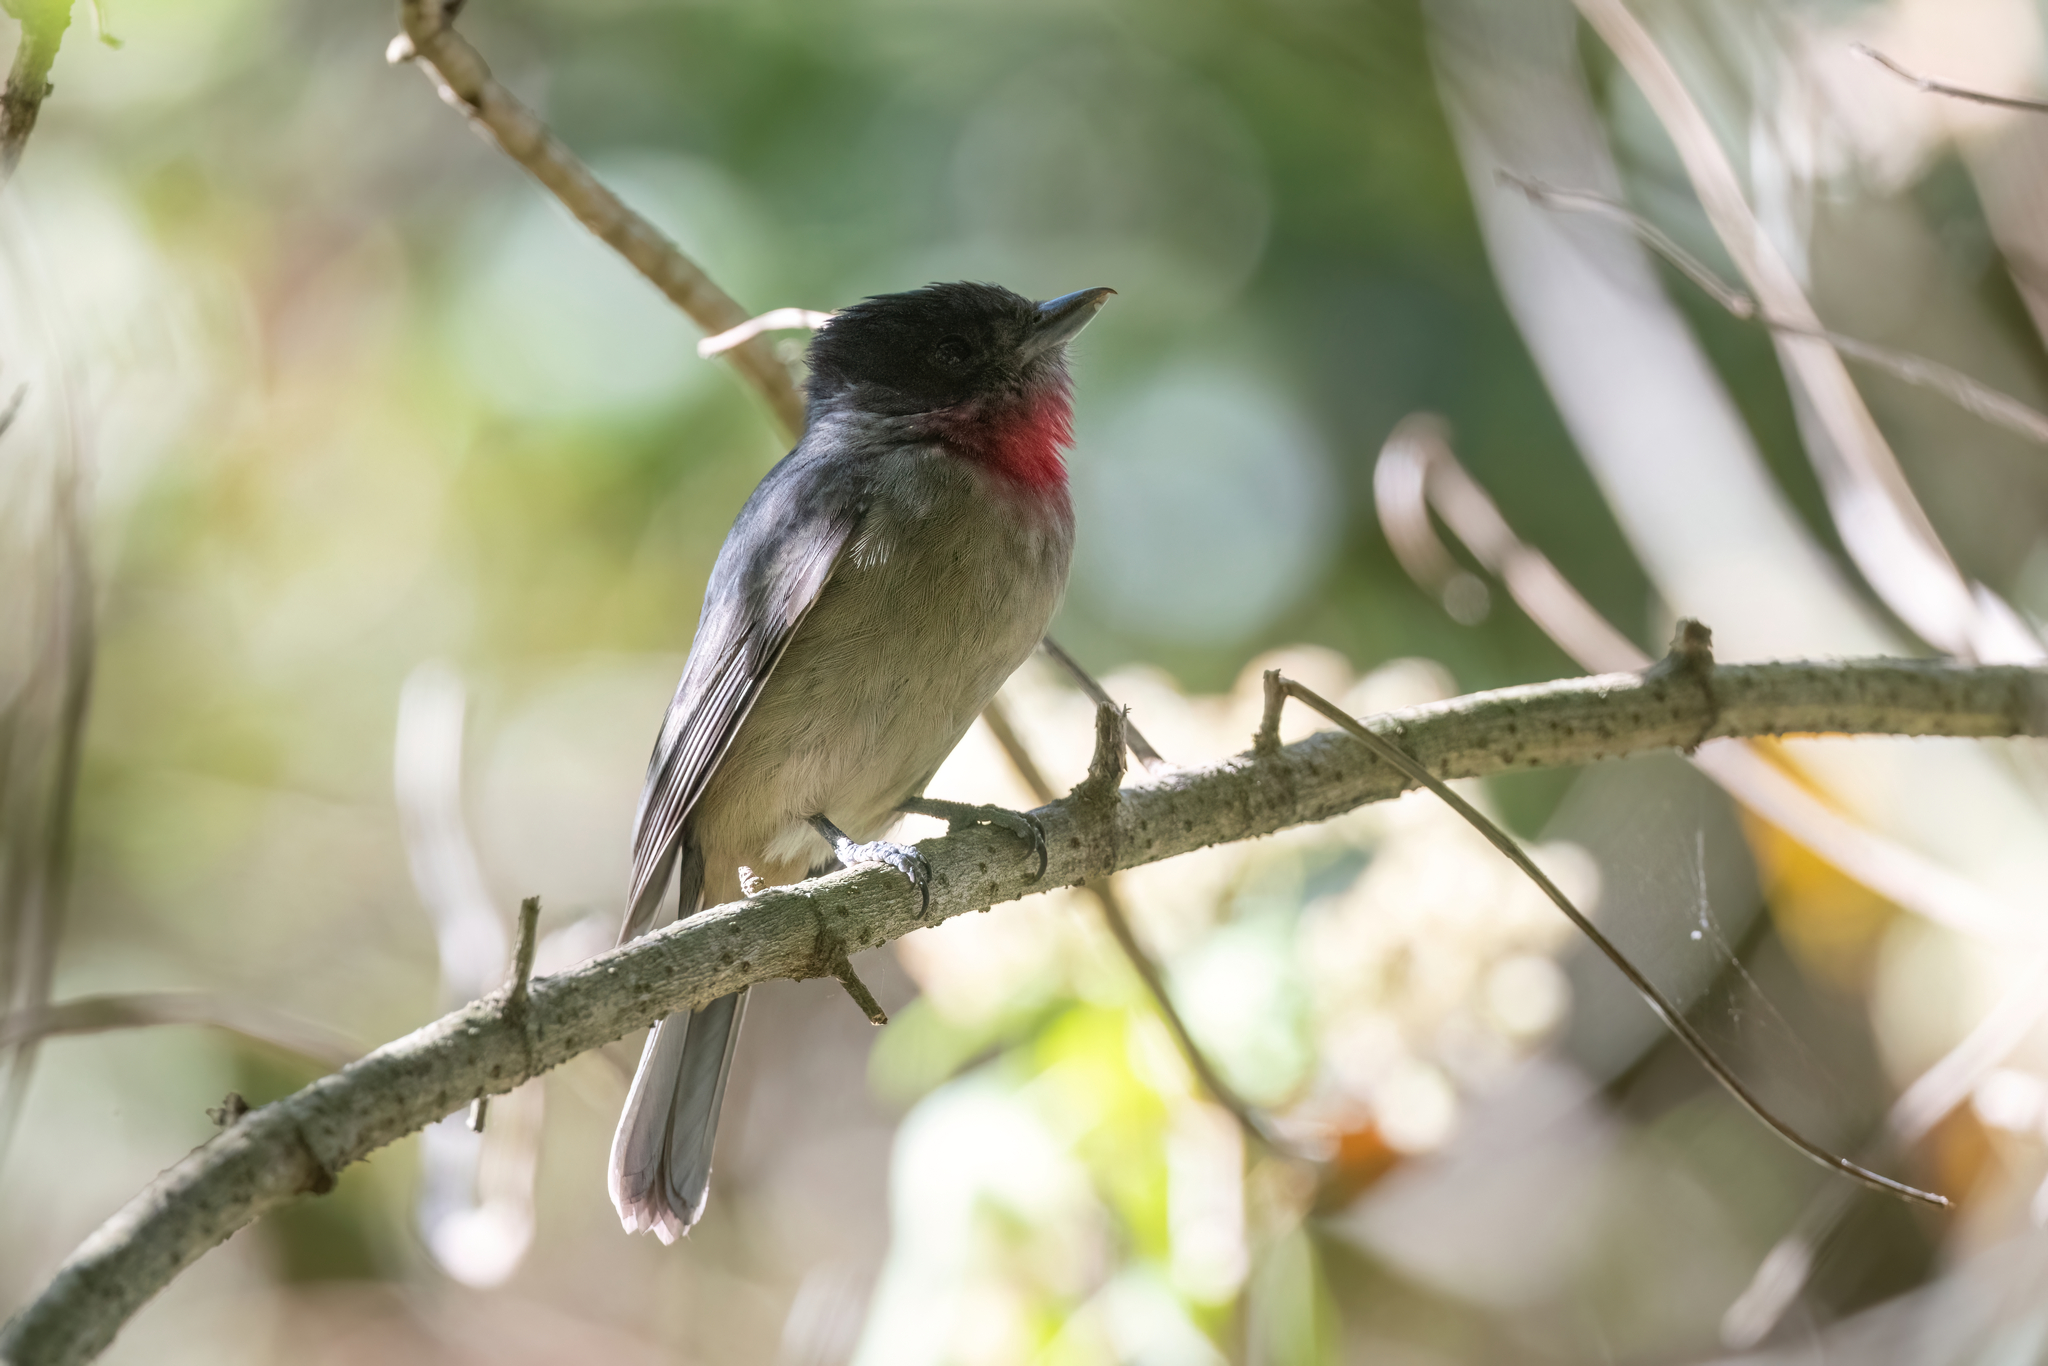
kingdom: Animalia
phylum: Chordata
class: Aves
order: Passeriformes
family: Cotingidae
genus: Pachyramphus
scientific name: Pachyramphus aglaiae
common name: Rose-throated becard
